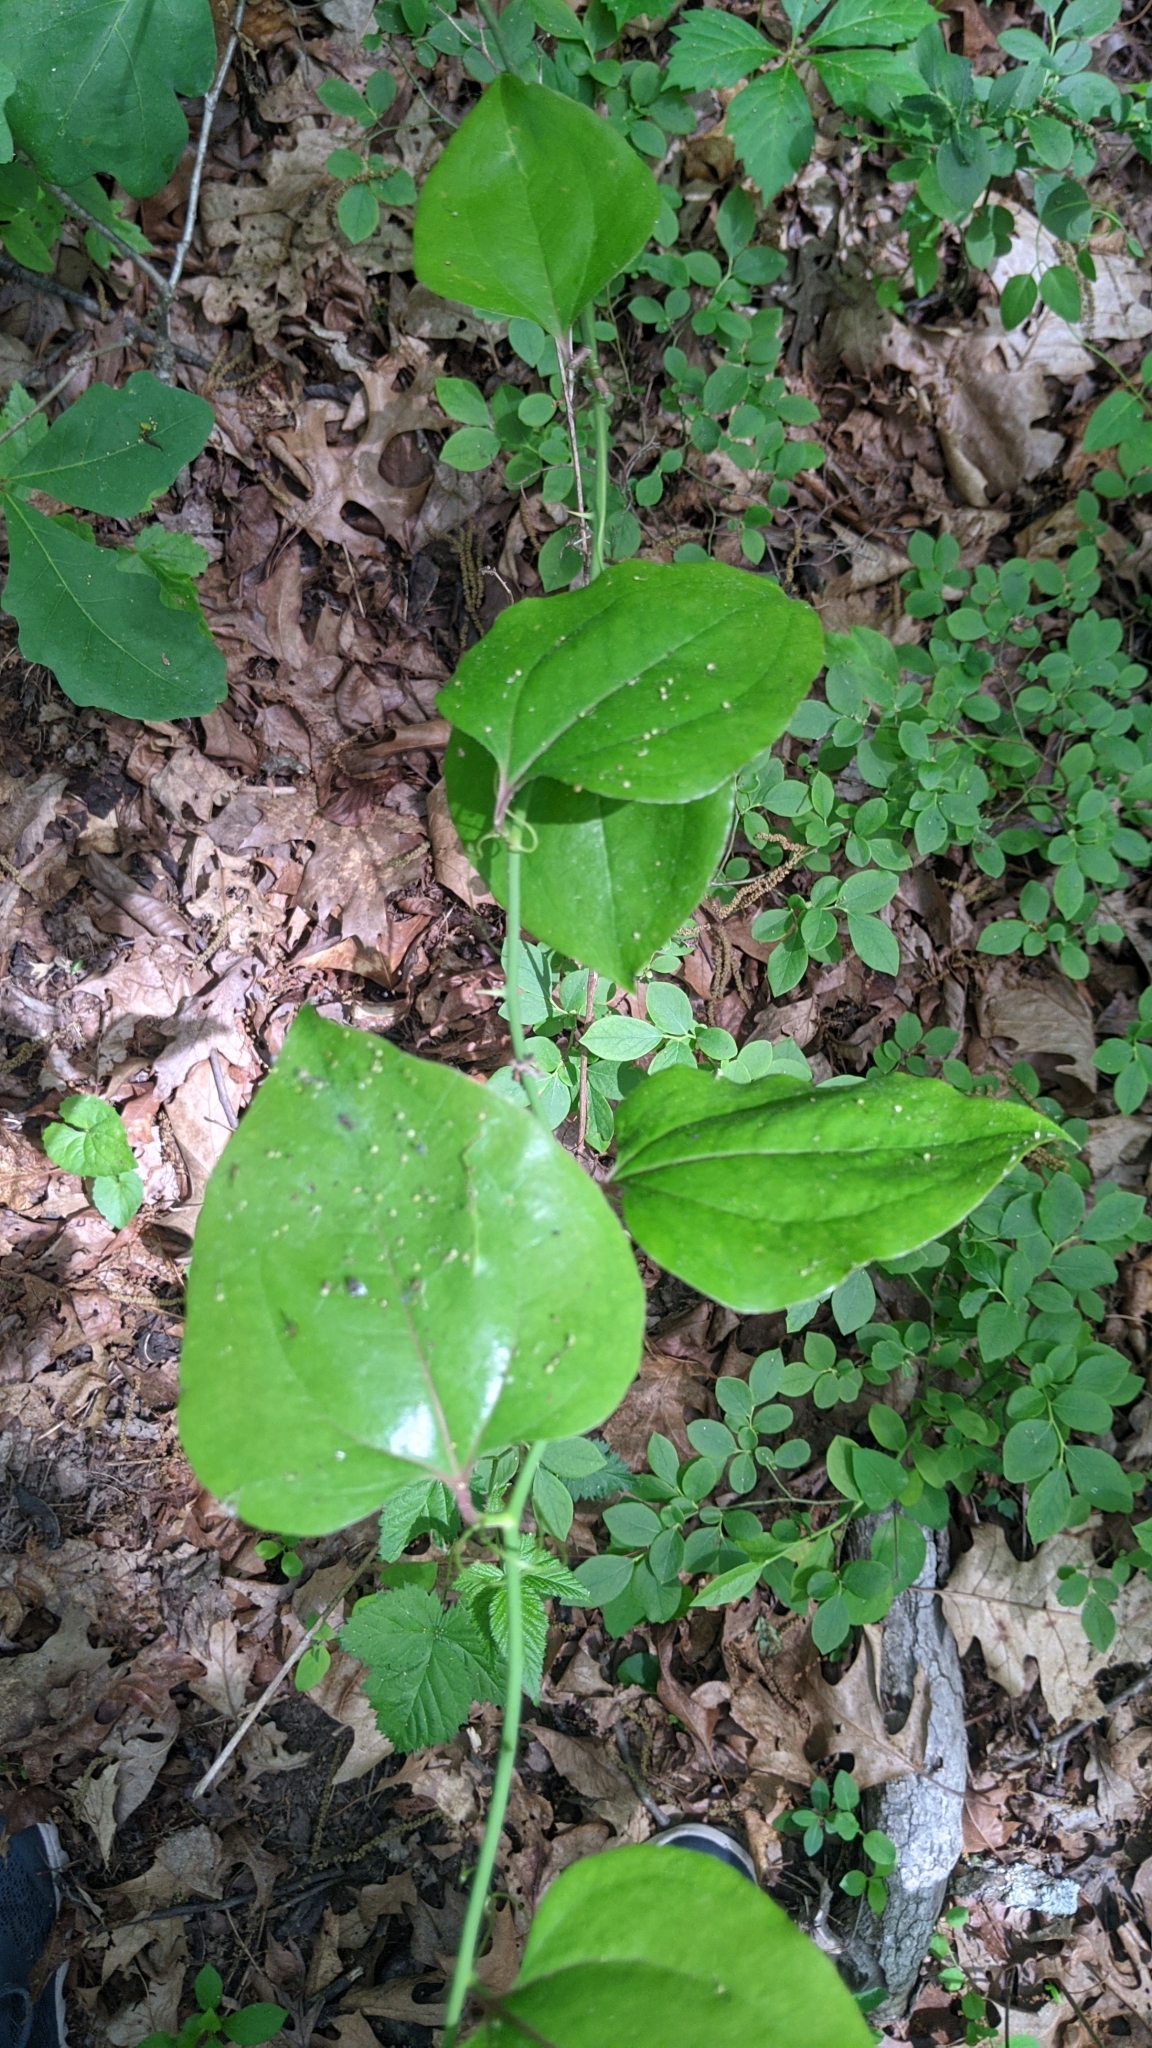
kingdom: Plantae
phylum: Tracheophyta
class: Liliopsida
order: Liliales
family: Smilacaceae
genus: Smilax
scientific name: Smilax rotundifolia
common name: Bullbriar
